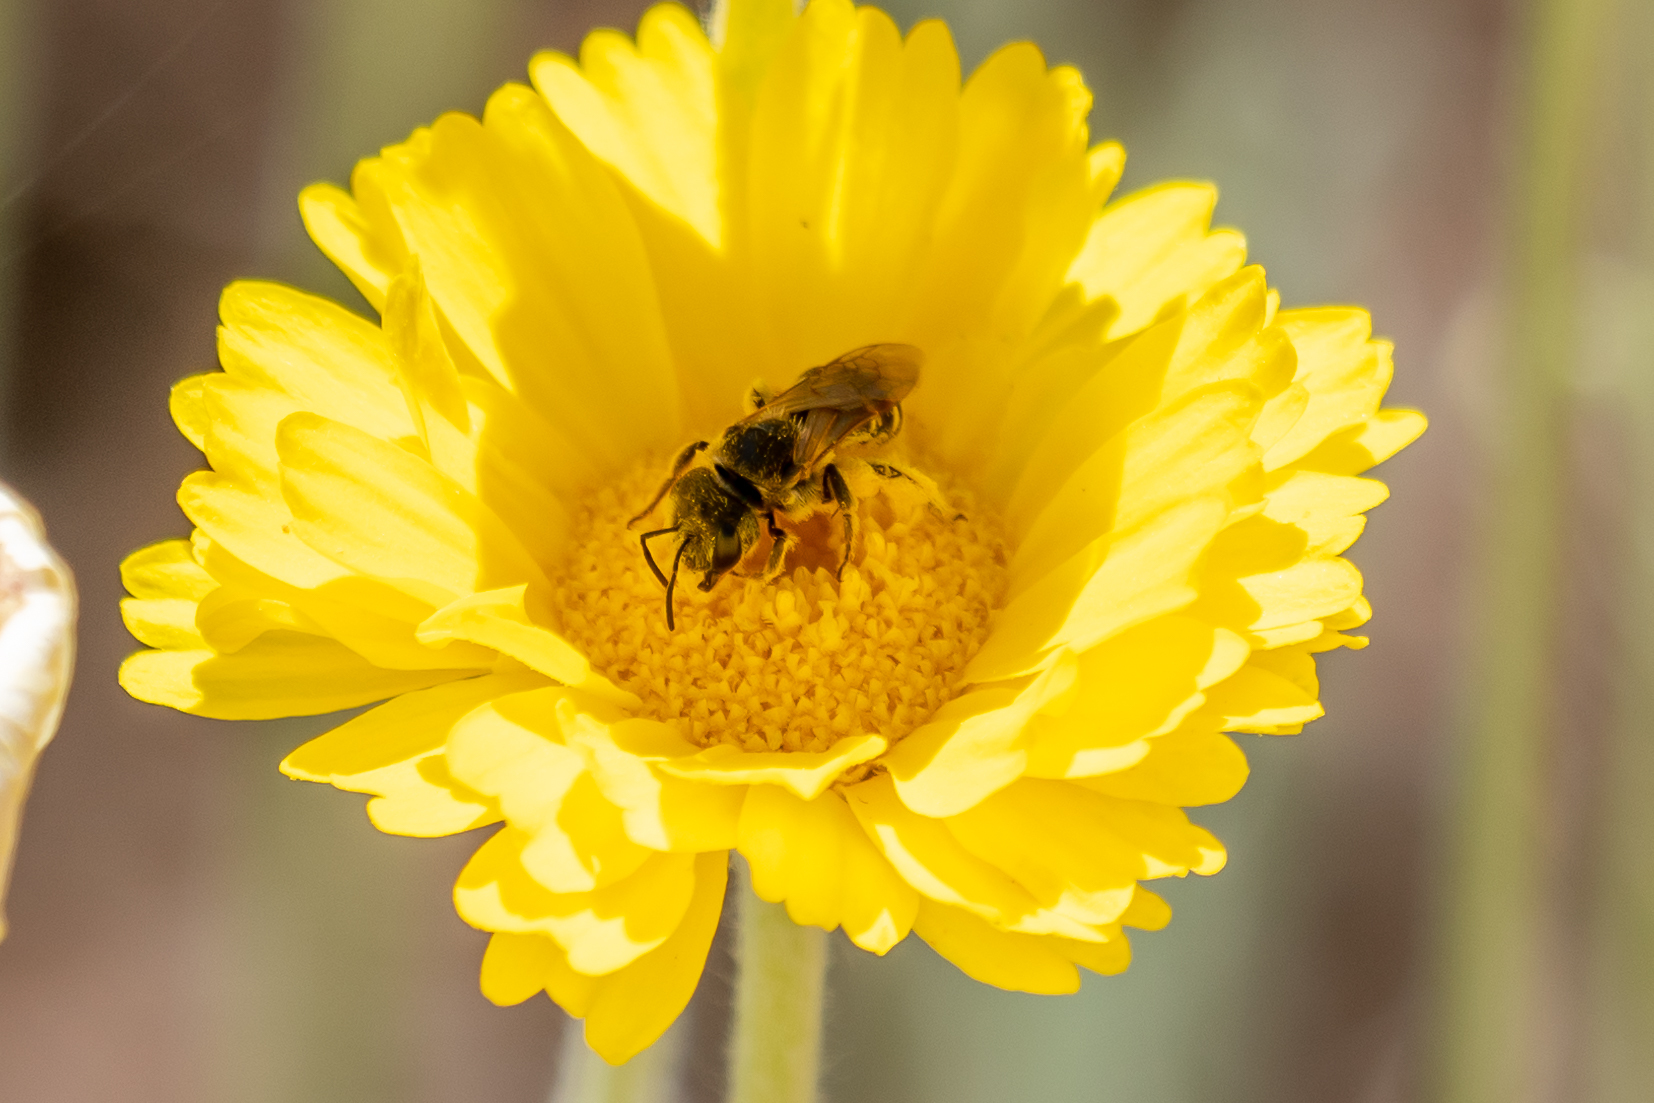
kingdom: Animalia
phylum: Arthropoda
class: Insecta
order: Hymenoptera
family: Halictidae
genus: Halictus
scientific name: Halictus ligatus
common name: Ligated furrow bee
